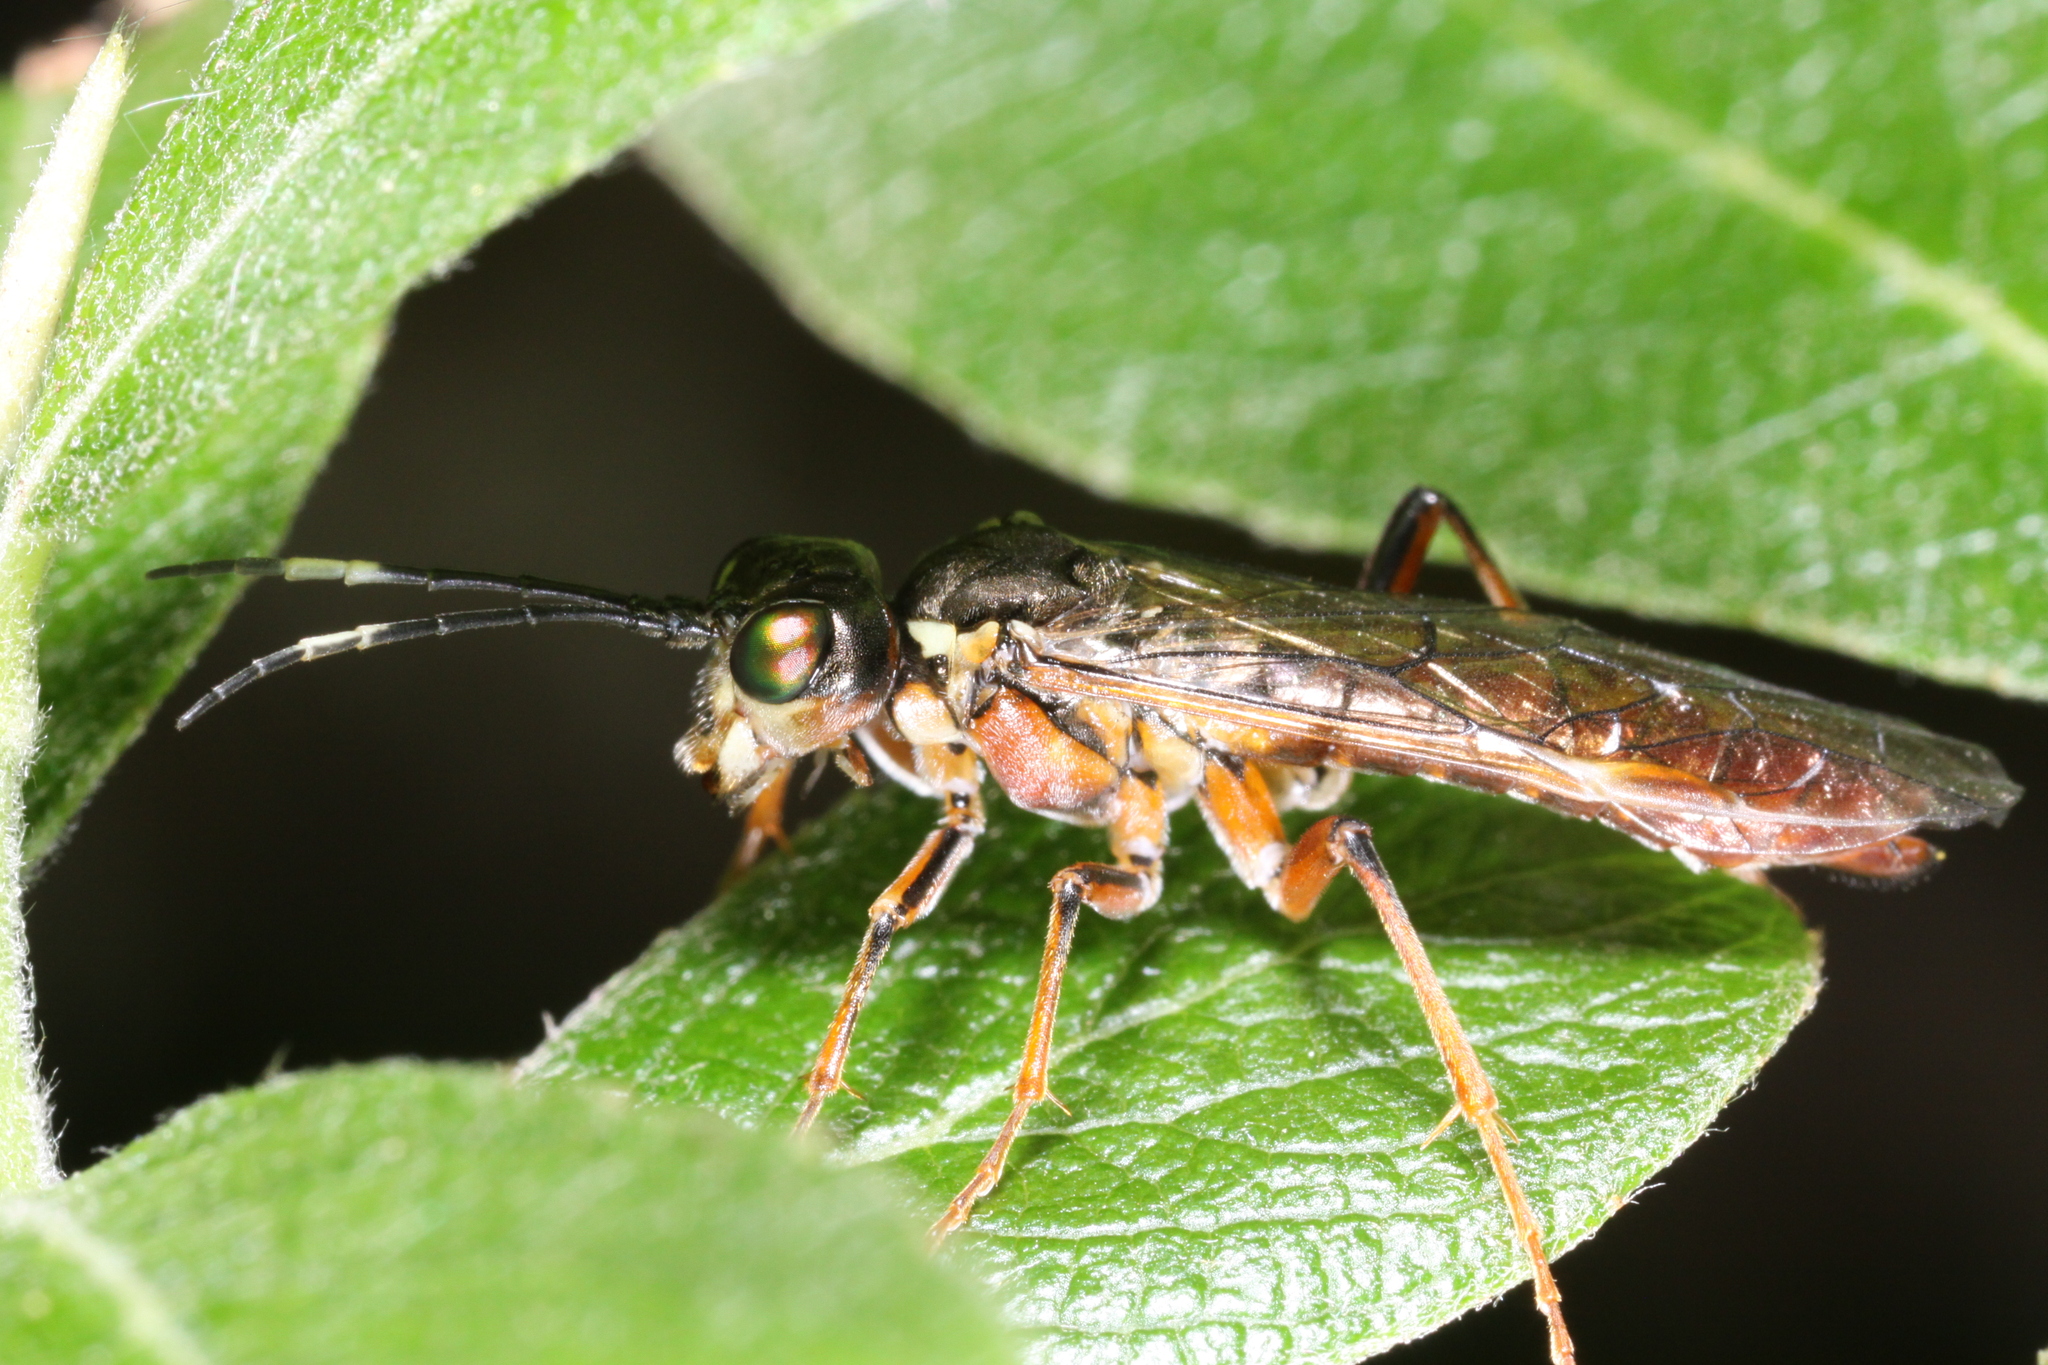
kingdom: Animalia
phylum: Arthropoda
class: Insecta
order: Hymenoptera
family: Tenthredinidae
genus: Tenthredo
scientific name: Tenthredo ferruginea
